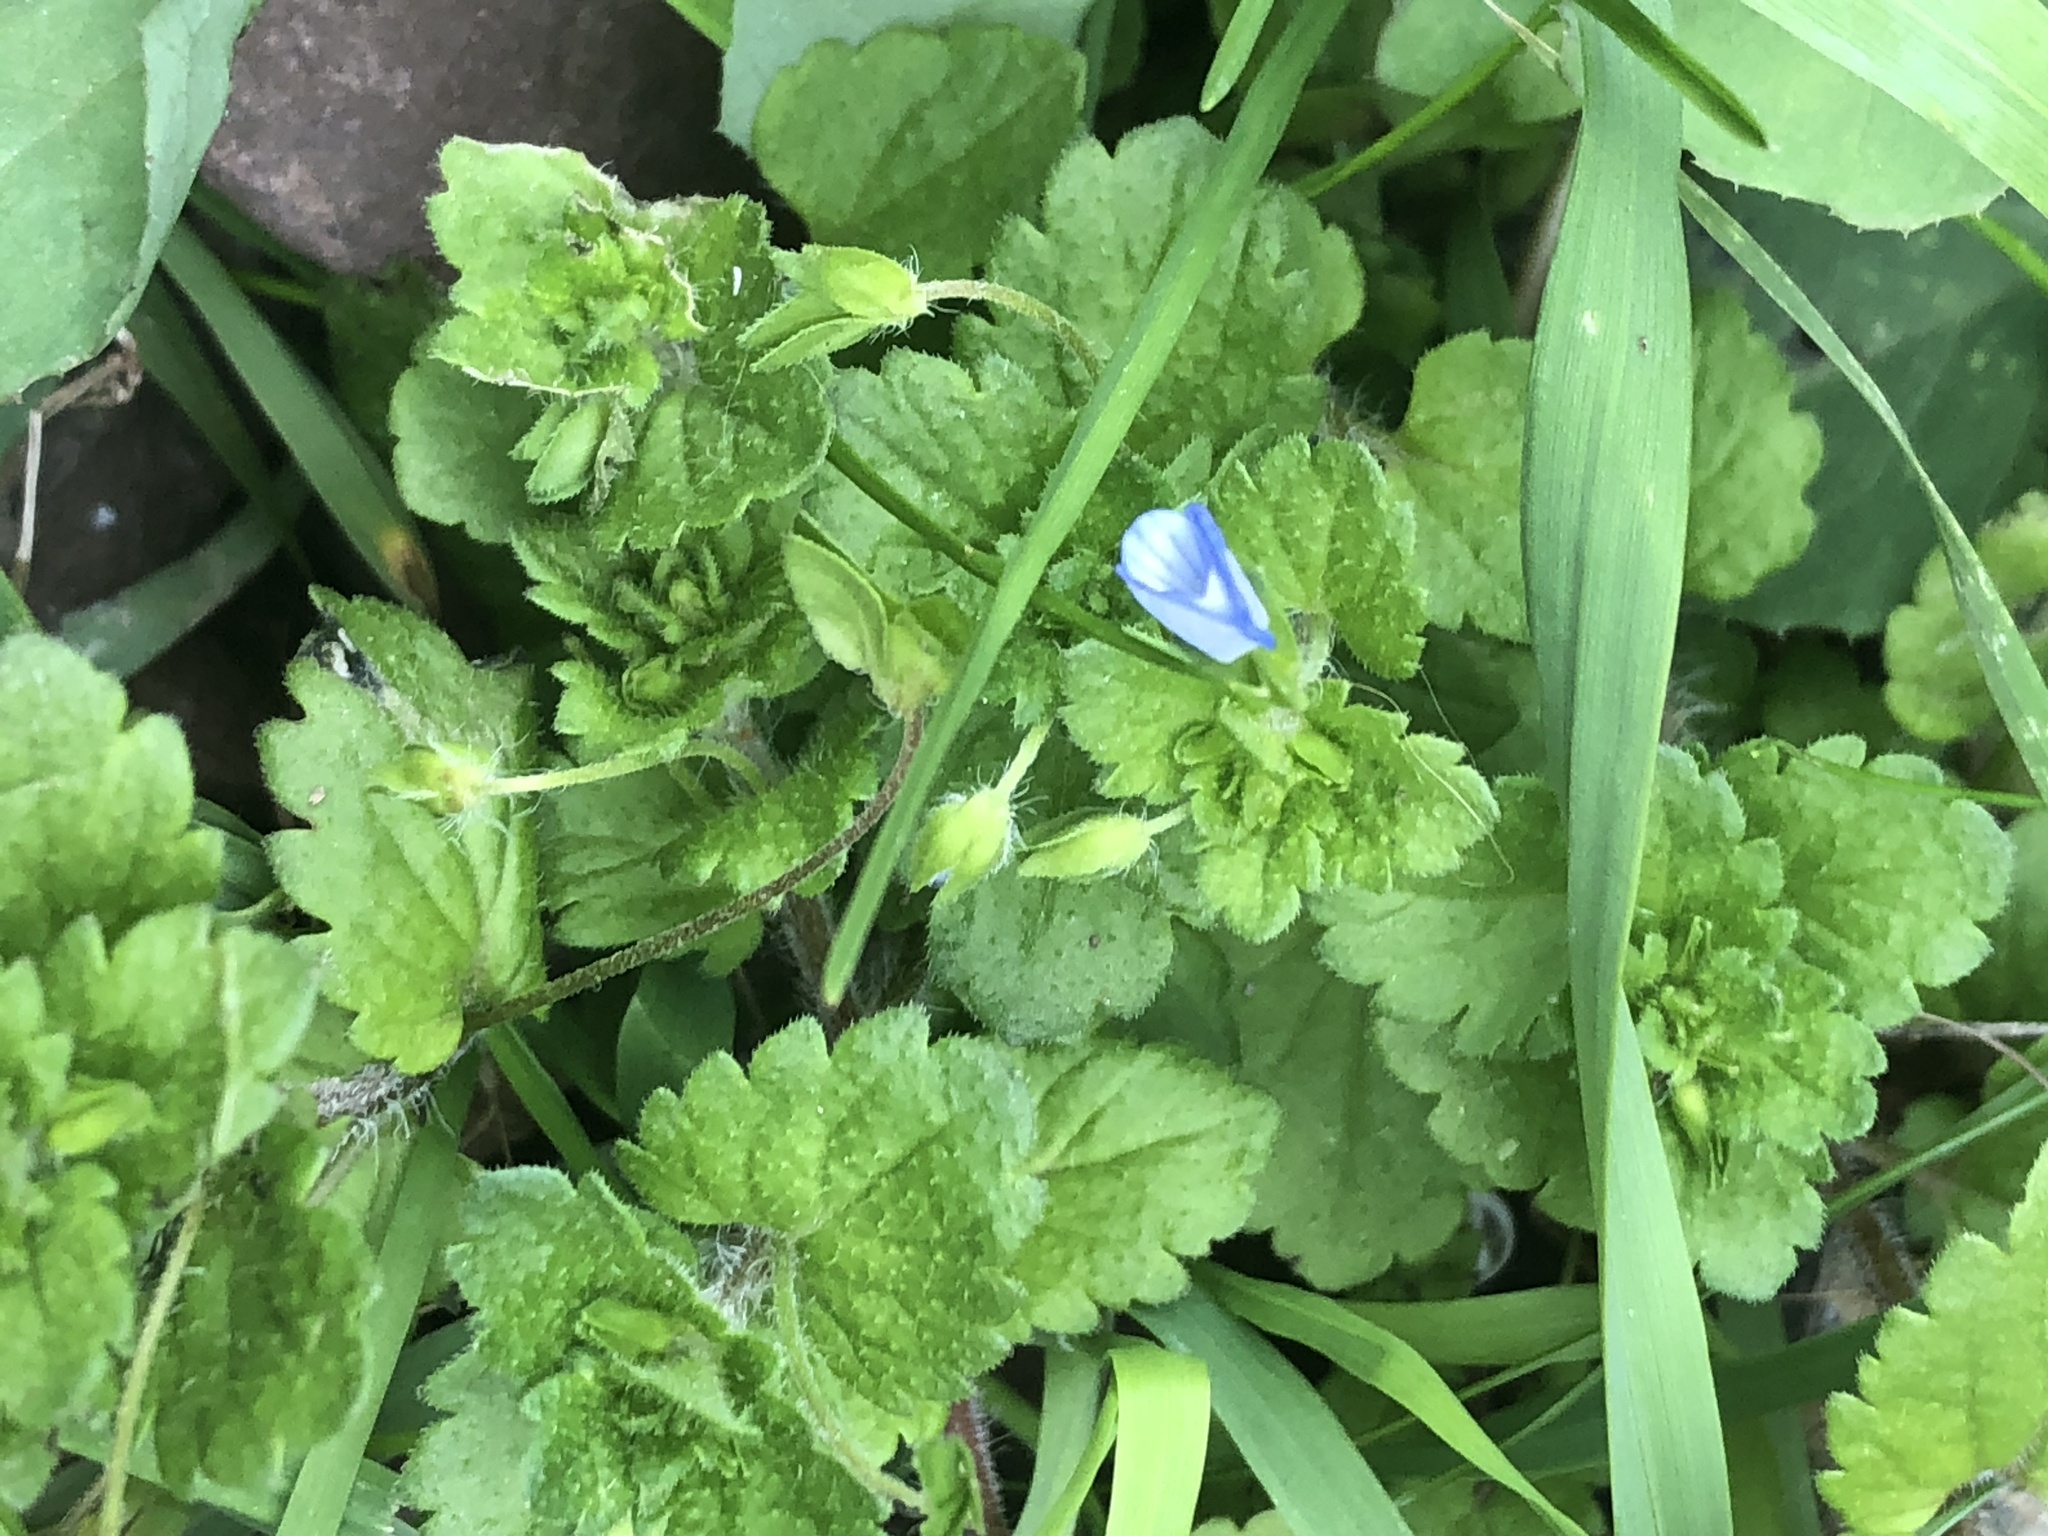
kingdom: Plantae
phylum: Tracheophyta
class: Magnoliopsida
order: Lamiales
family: Plantaginaceae
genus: Veronica
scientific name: Veronica persica
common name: Common field-speedwell
